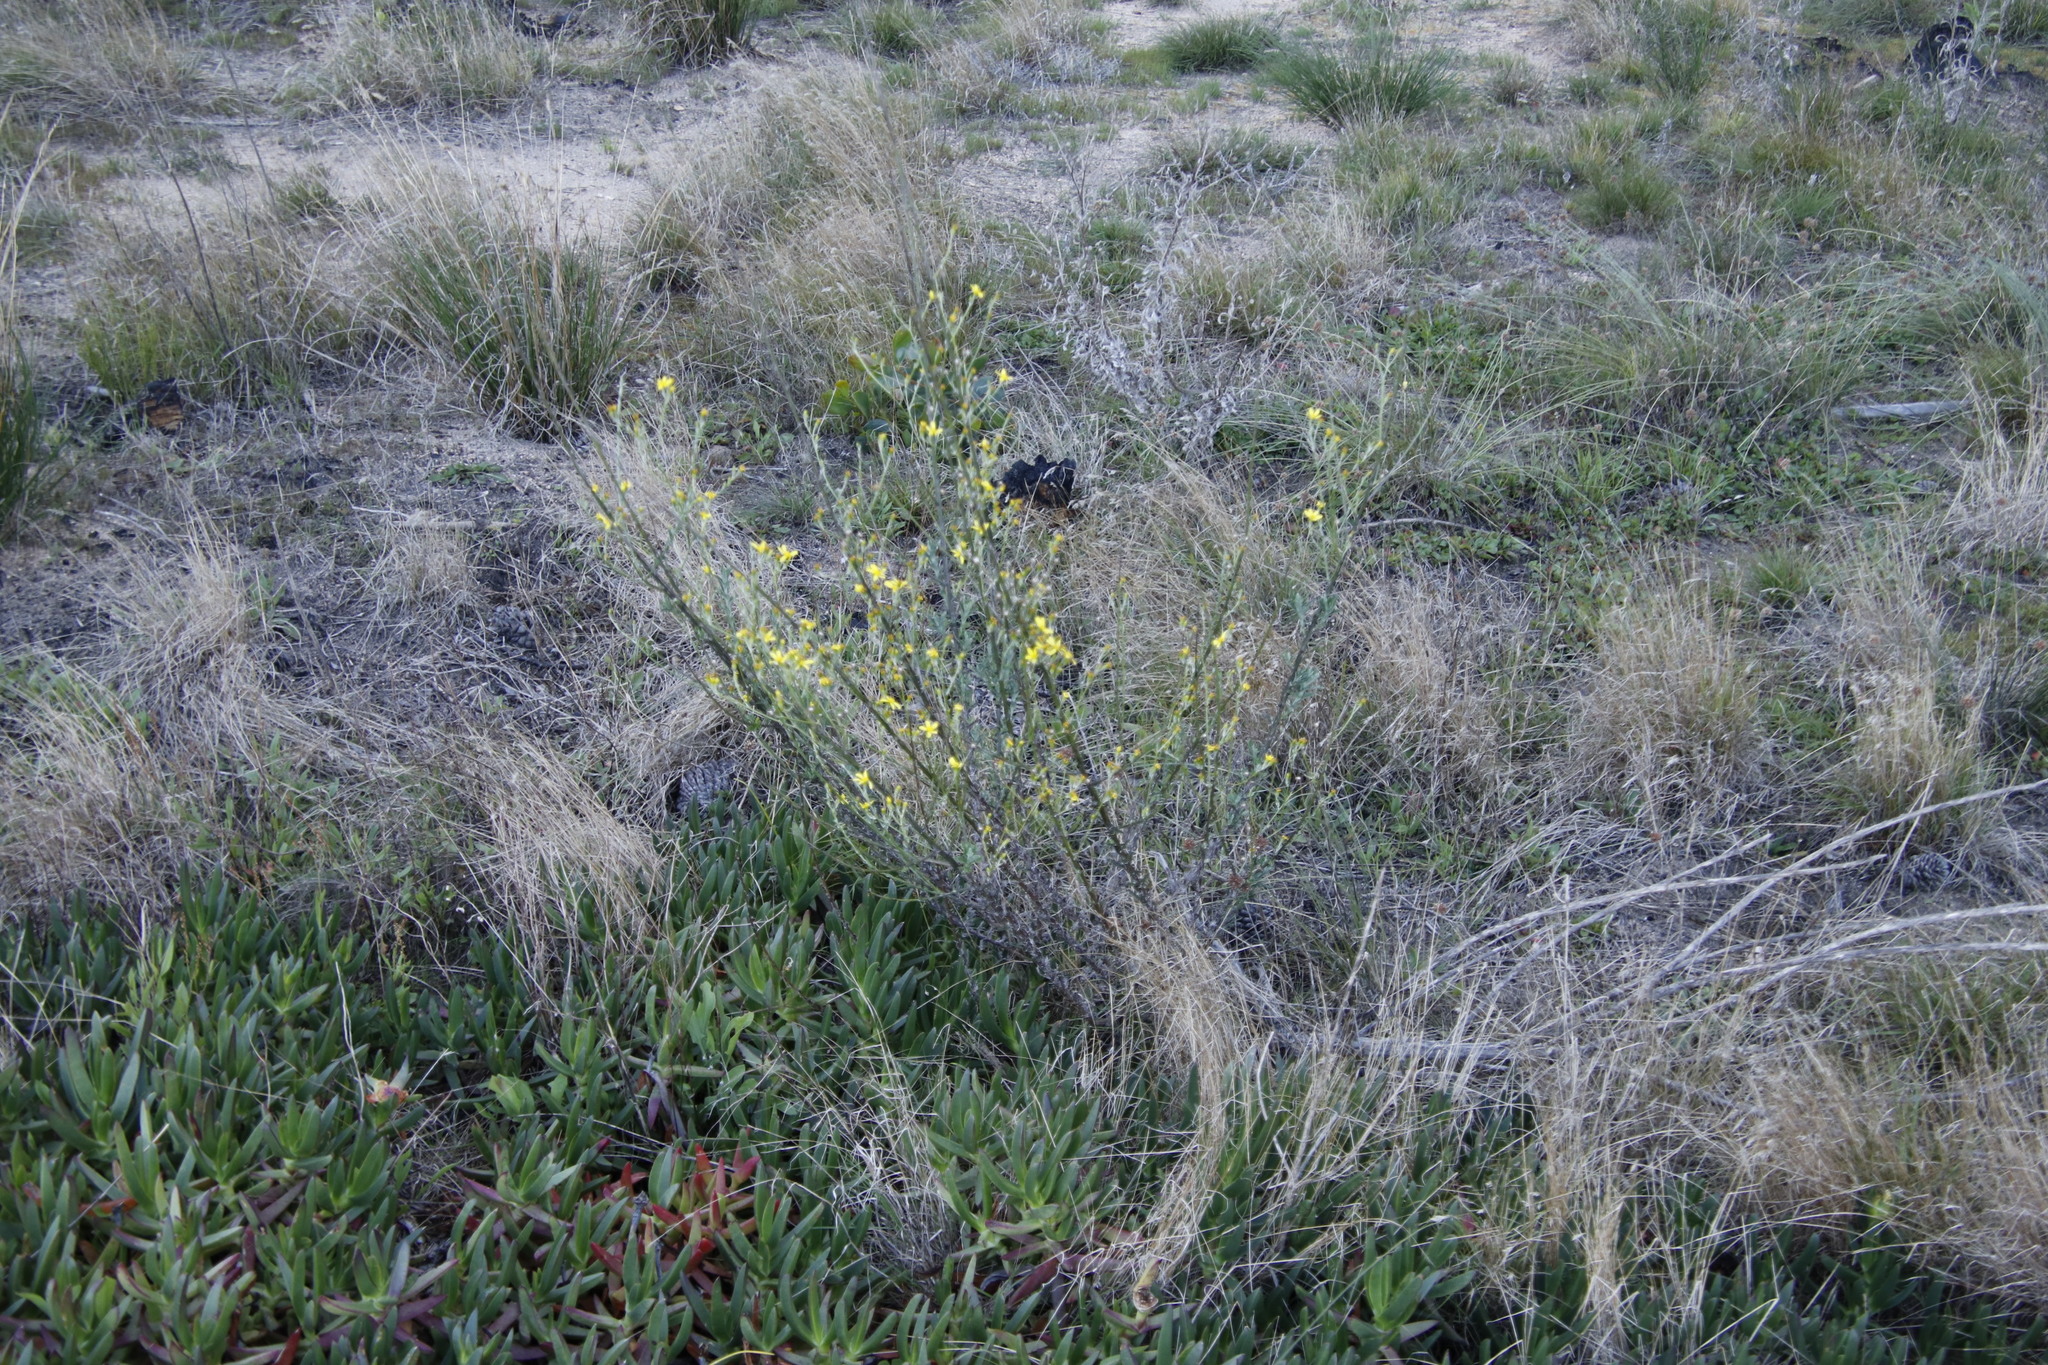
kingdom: Plantae
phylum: Tracheophyta
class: Magnoliopsida
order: Asterales
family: Asteraceae
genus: Senecio
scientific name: Senecio pubigerus
